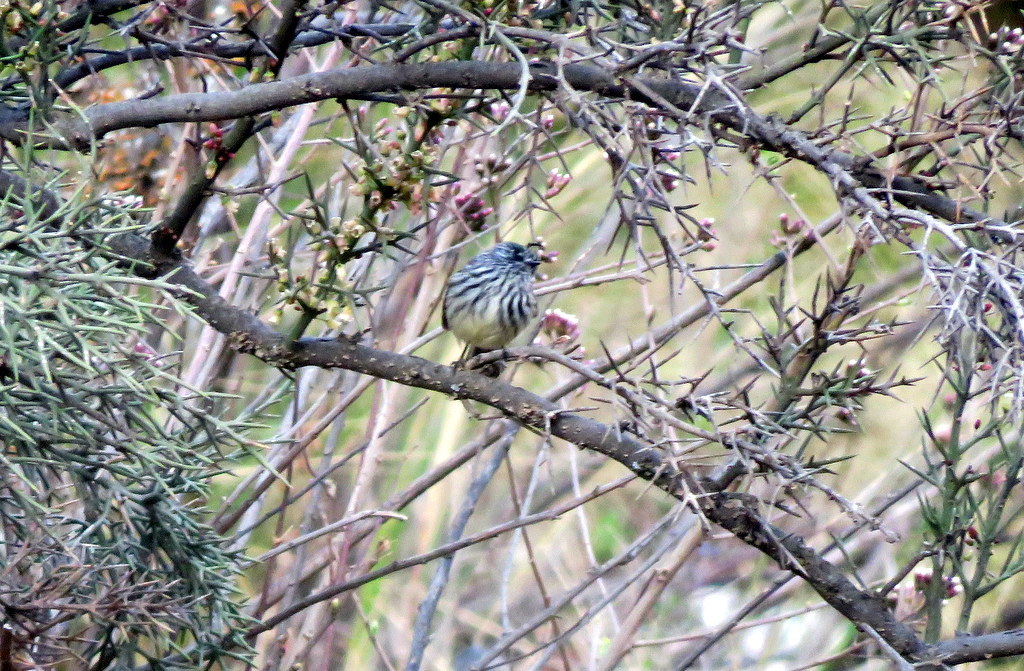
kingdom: Animalia
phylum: Chordata
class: Aves
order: Passeriformes
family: Tyrannidae
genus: Anairetes
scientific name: Anairetes parulus
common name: Tufted tit-tyrant
